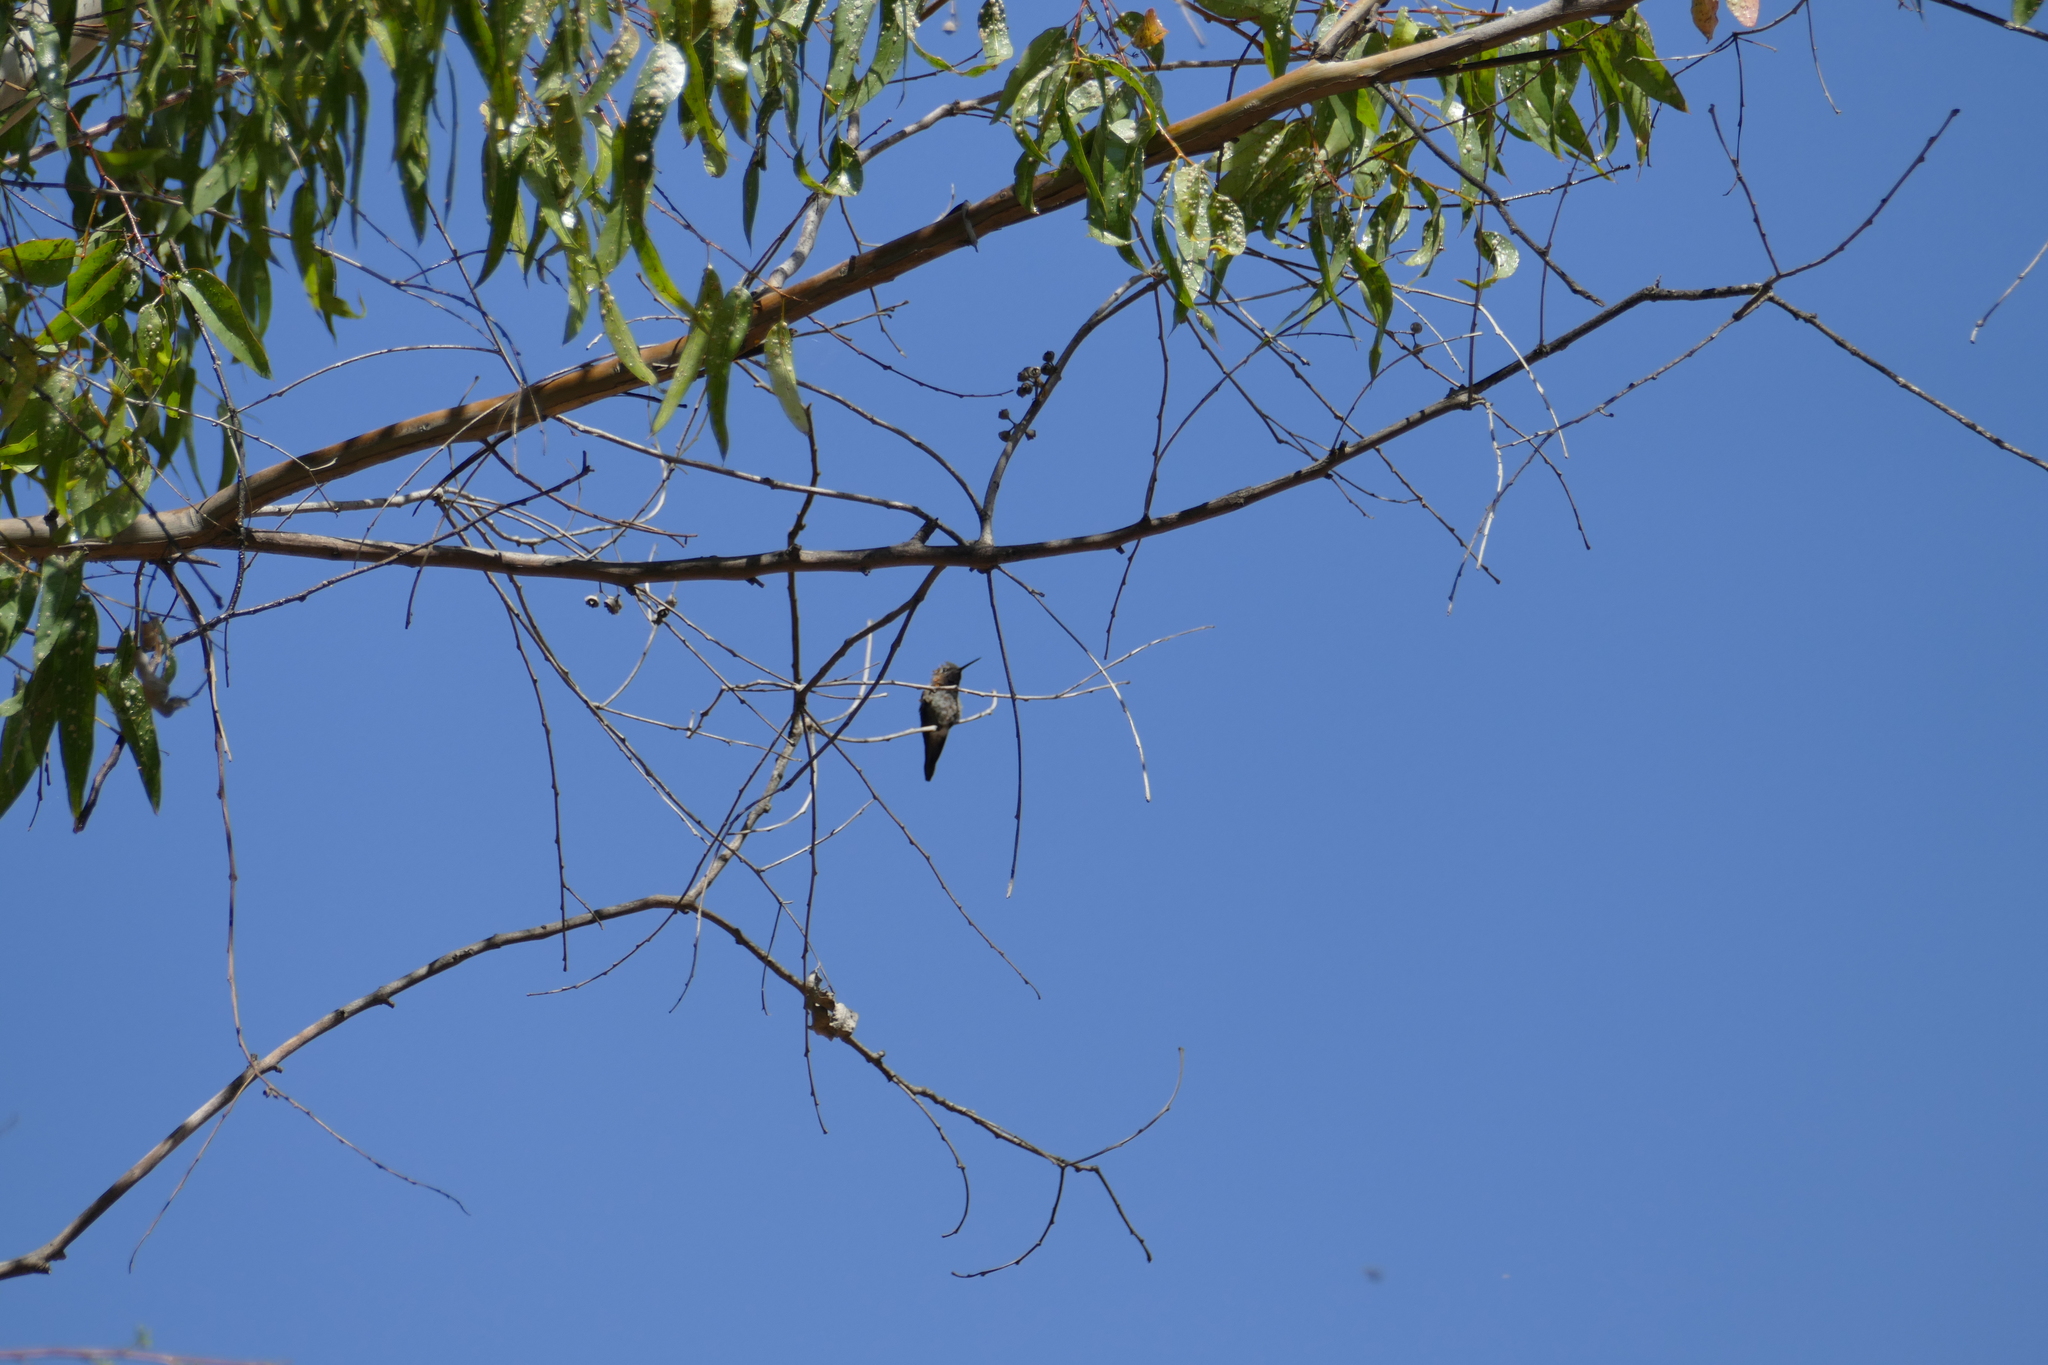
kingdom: Animalia
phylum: Chordata
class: Aves
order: Apodiformes
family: Trochilidae
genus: Calypte
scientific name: Calypte anna
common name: Anna's hummingbird
